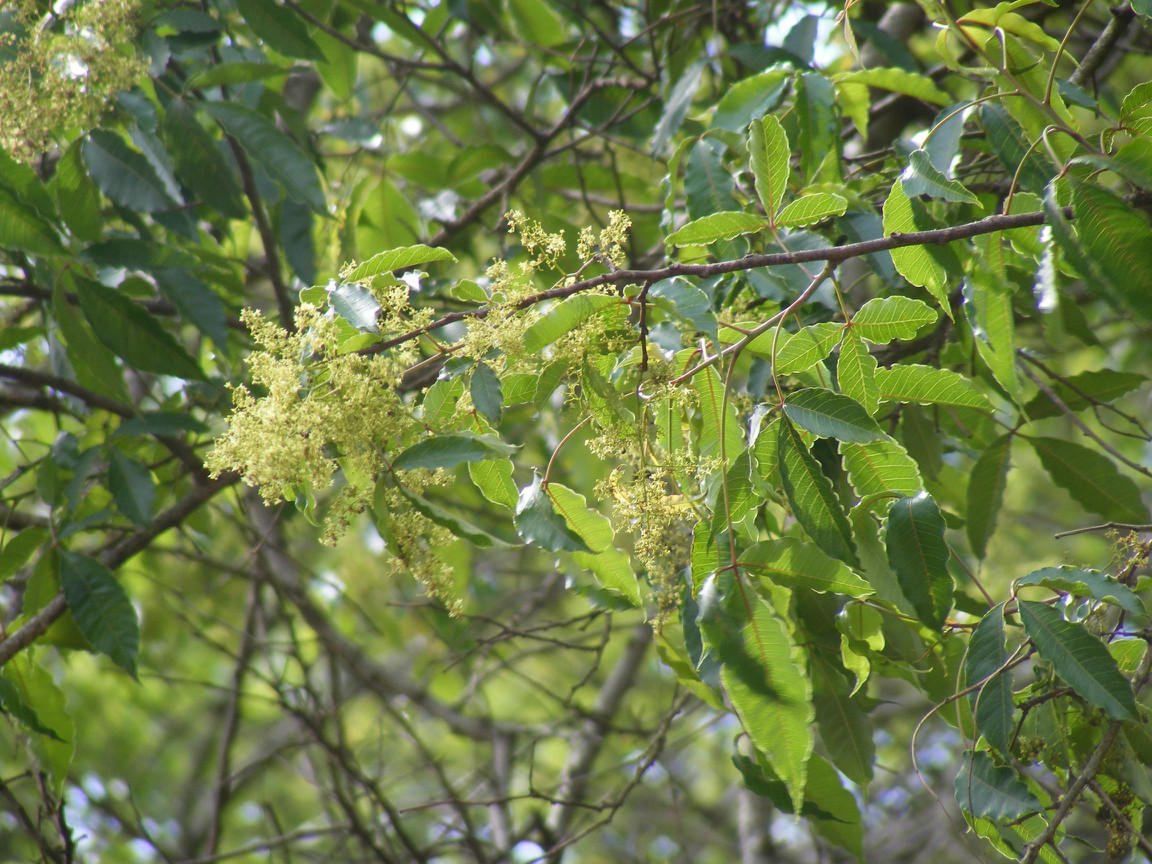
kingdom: Plantae
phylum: Tracheophyta
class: Magnoliopsida
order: Sapindales
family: Anacardiaceae
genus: Searsia
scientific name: Searsia chirindensis
